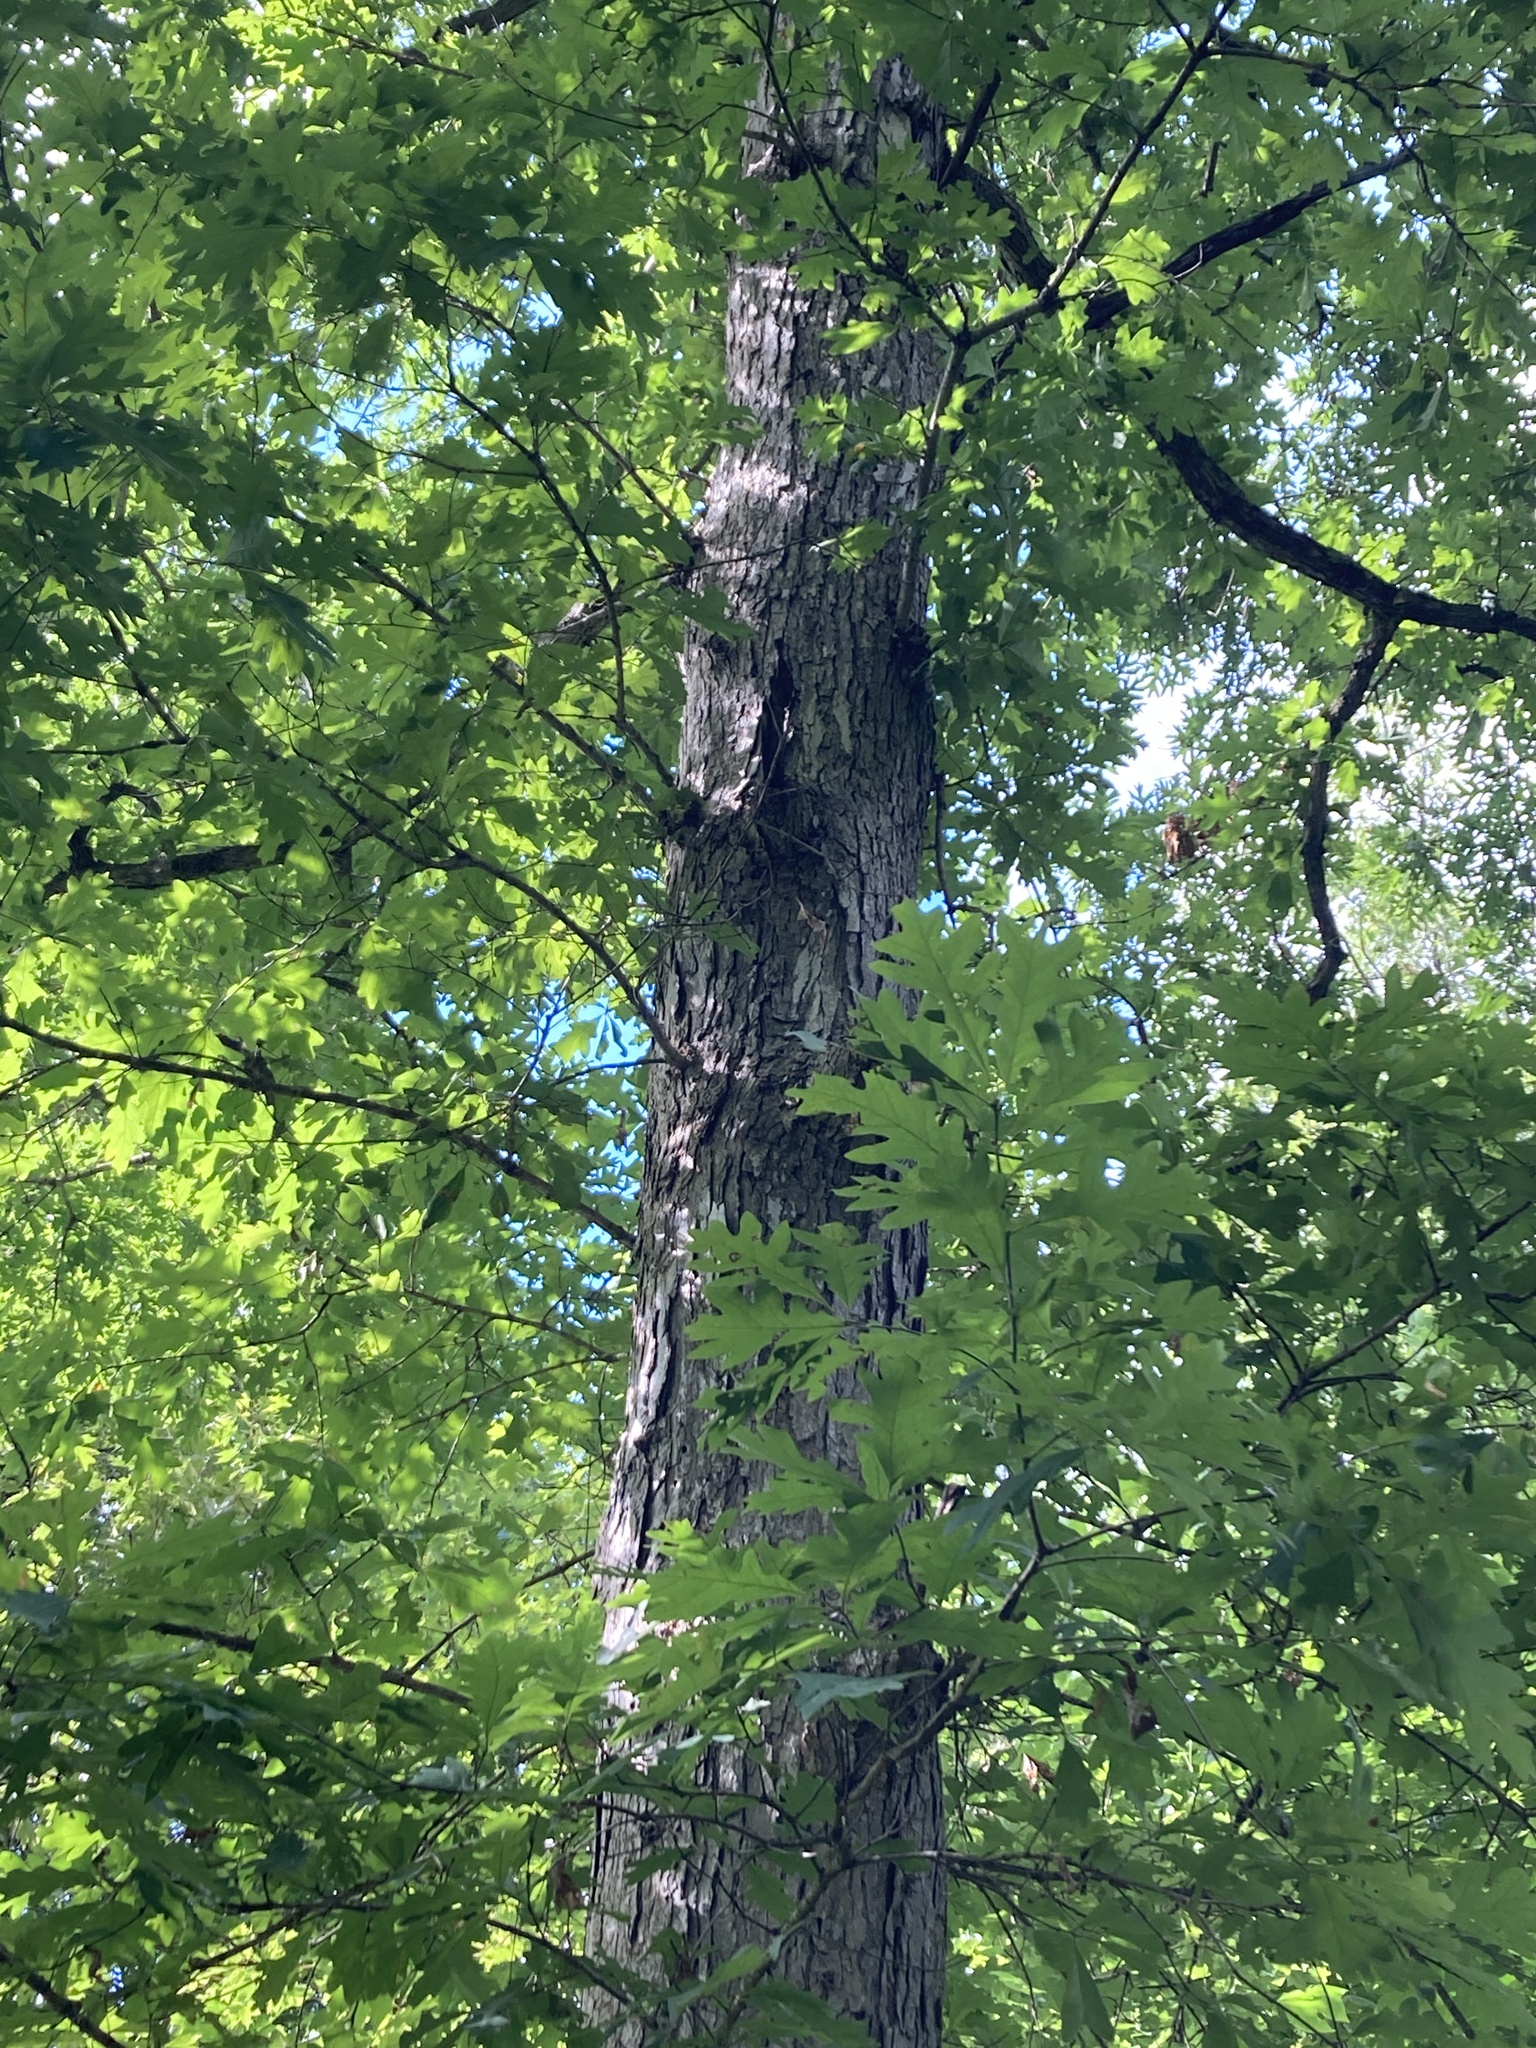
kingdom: Plantae
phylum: Tracheophyta
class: Magnoliopsida
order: Fagales
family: Fagaceae
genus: Quercus
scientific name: Quercus alba
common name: White oak
